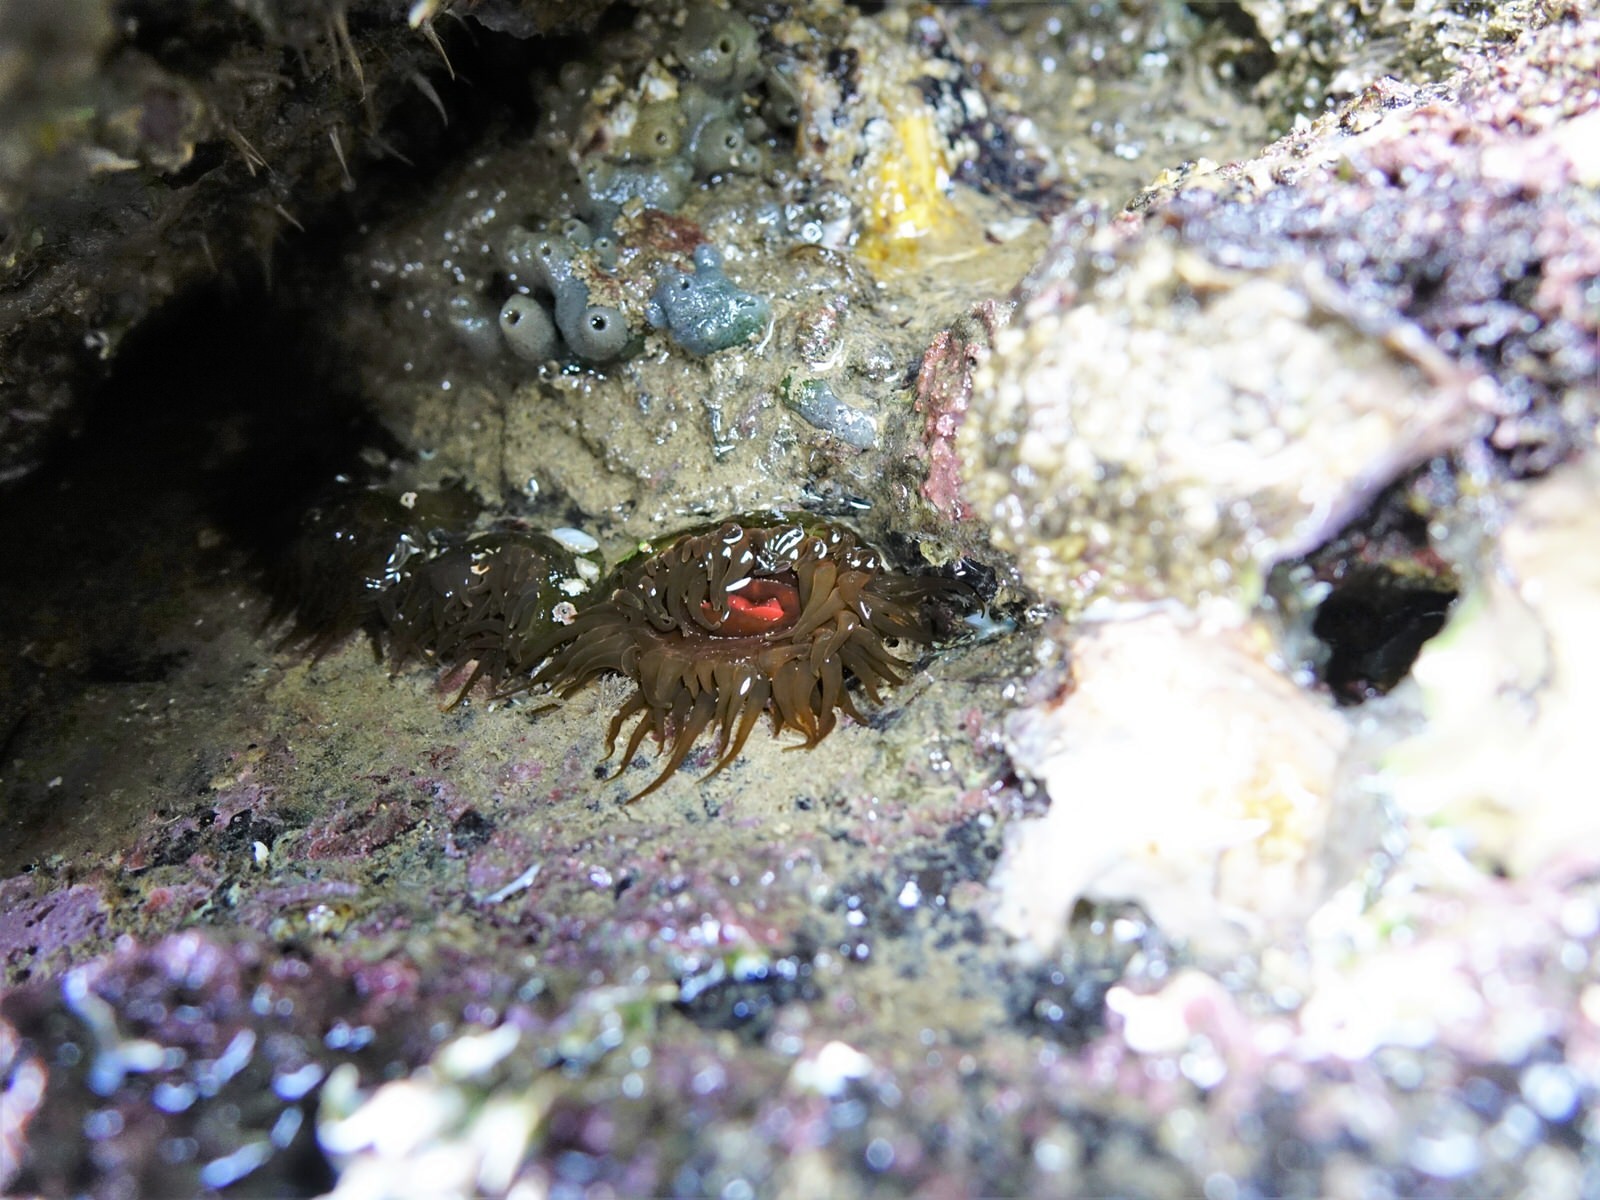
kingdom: Animalia
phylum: Cnidaria
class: Anthozoa
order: Actiniaria
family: Actiniidae
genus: Isactinia
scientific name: Isactinia olivacea
